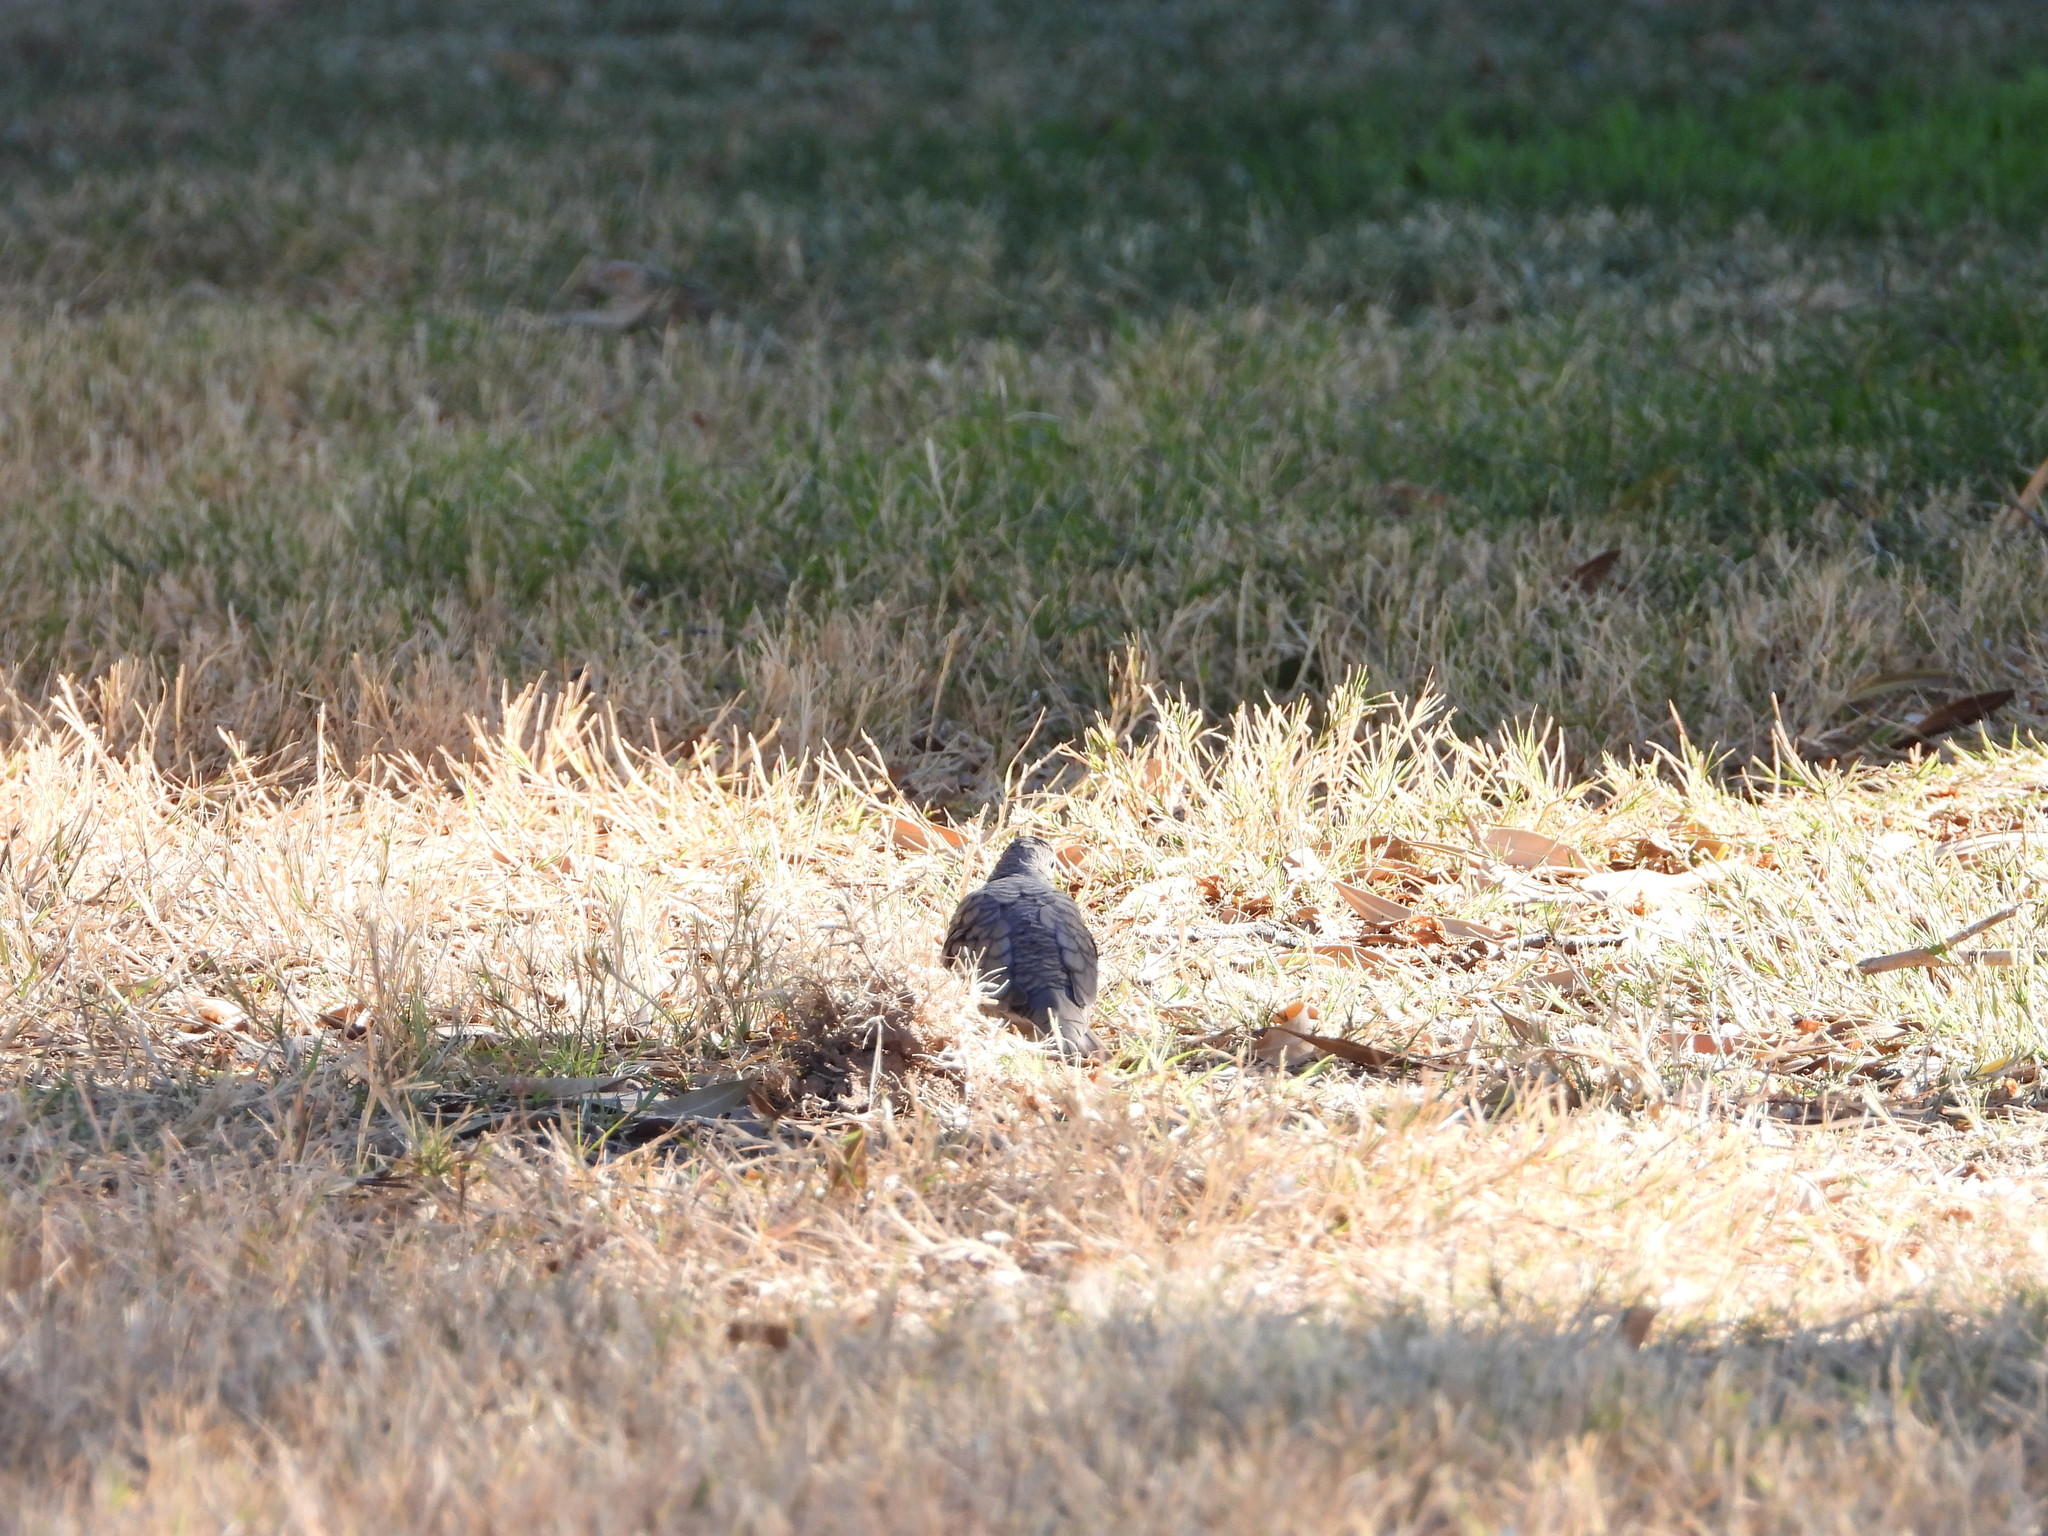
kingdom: Animalia
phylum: Chordata
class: Aves
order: Columbiformes
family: Columbidae
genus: Columbina
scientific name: Columbina inca
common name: Inca dove
